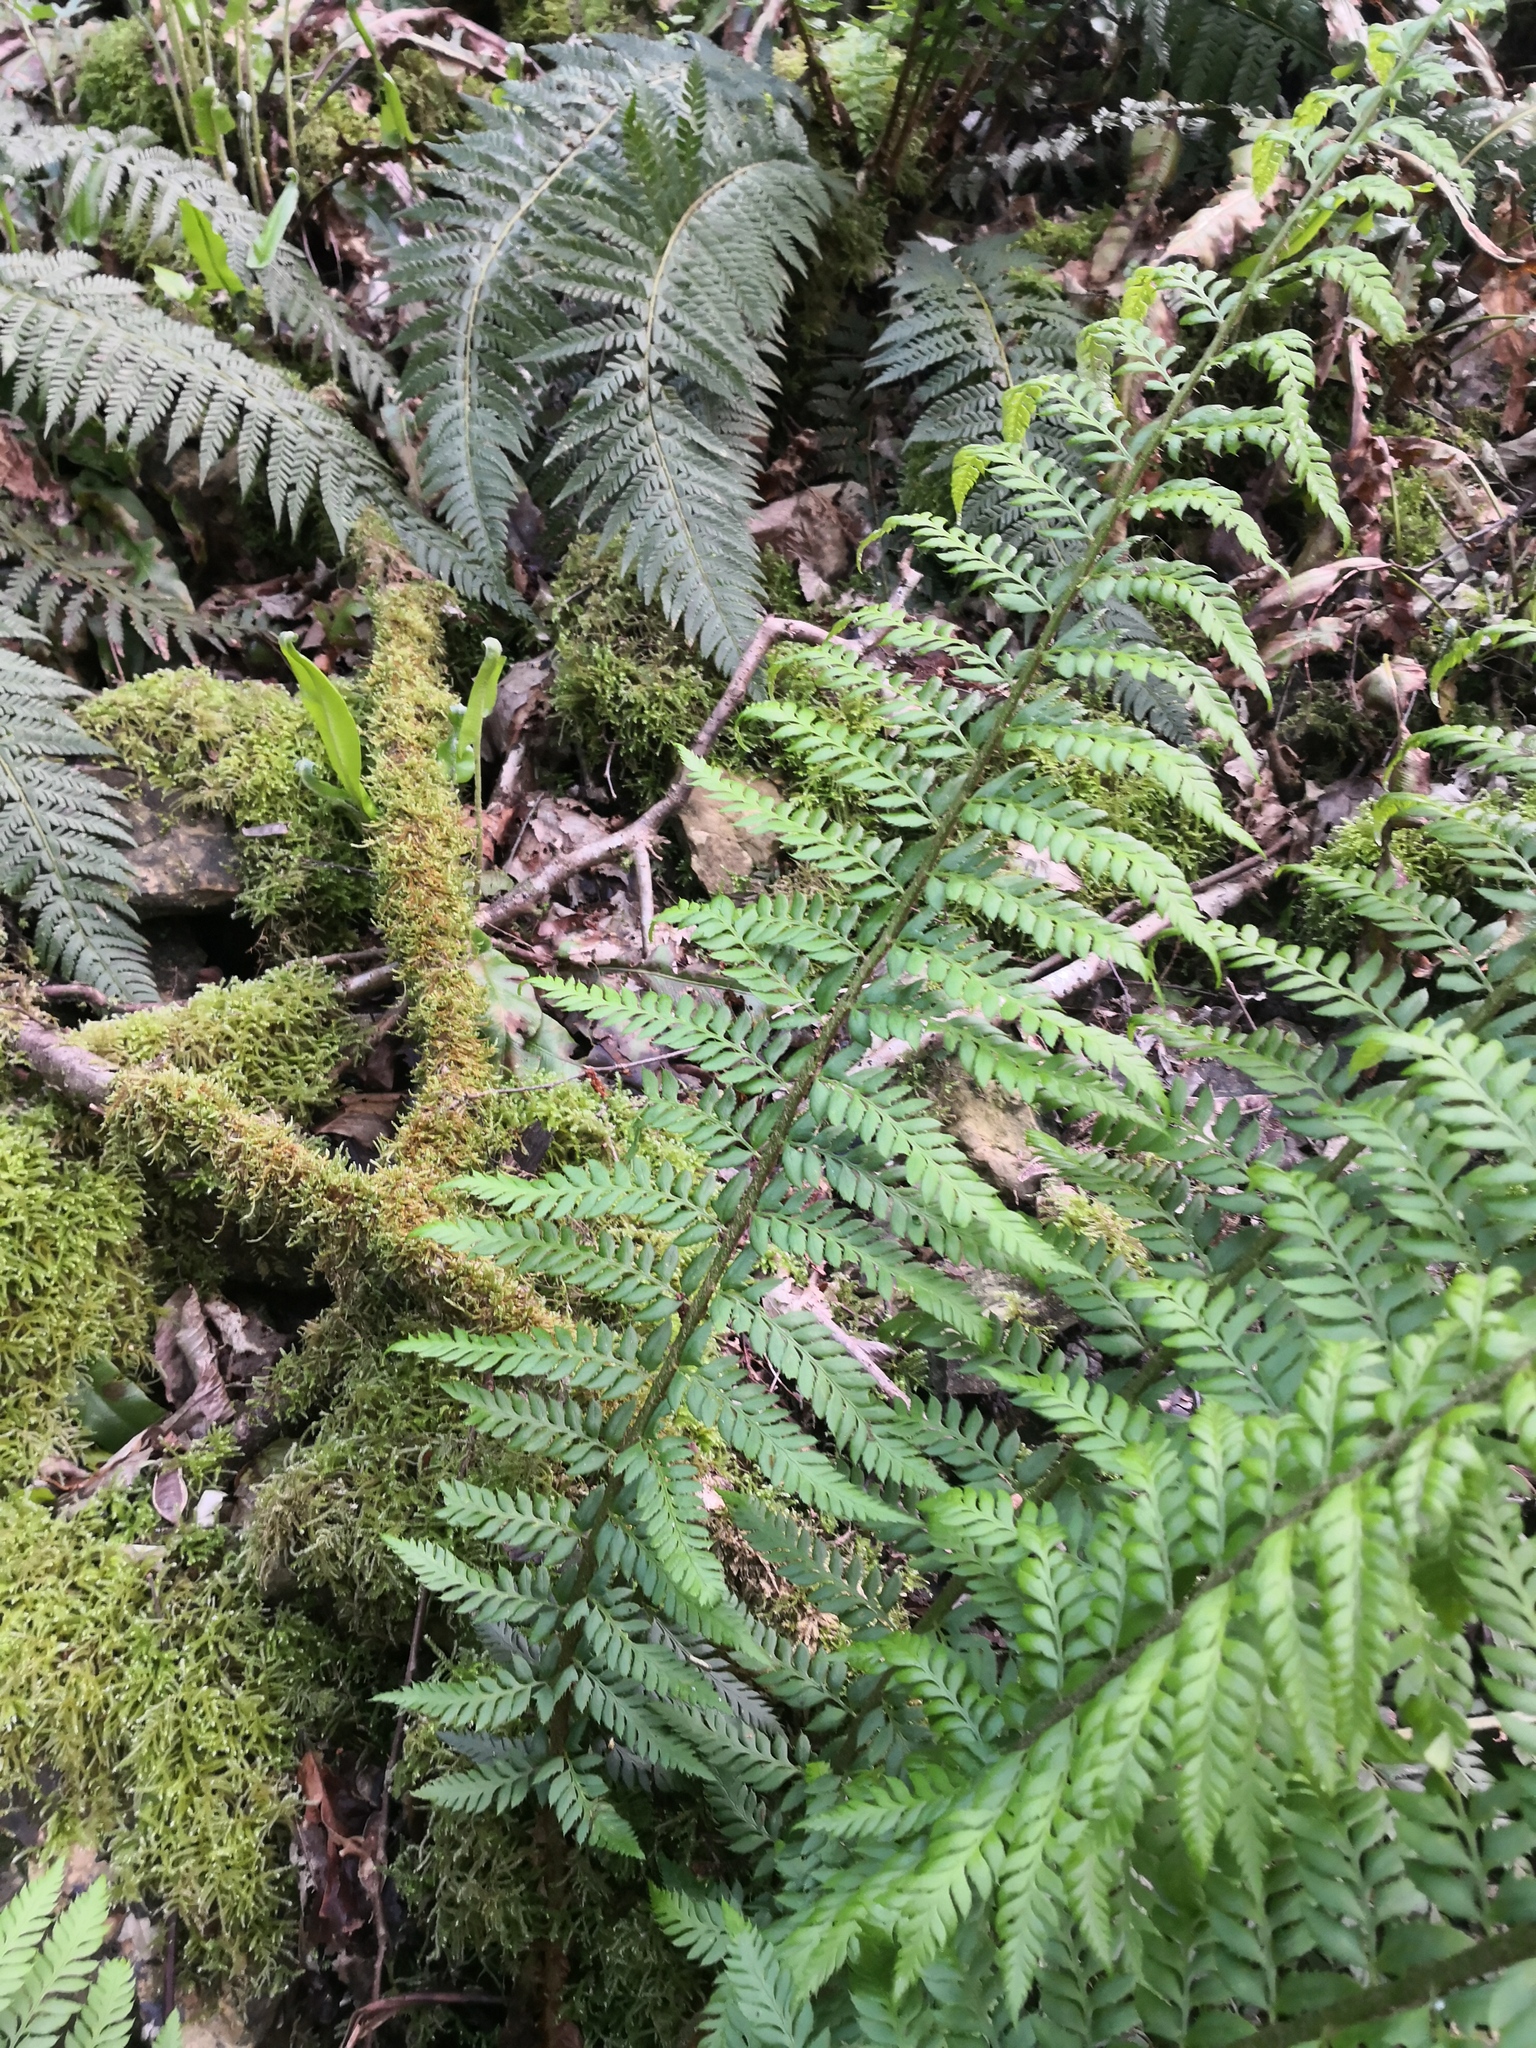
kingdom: Plantae
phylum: Tracheophyta
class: Polypodiopsida
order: Polypodiales
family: Dryopteridaceae
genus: Polystichum
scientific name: Polystichum aculeatum
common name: Hard shield-fern
